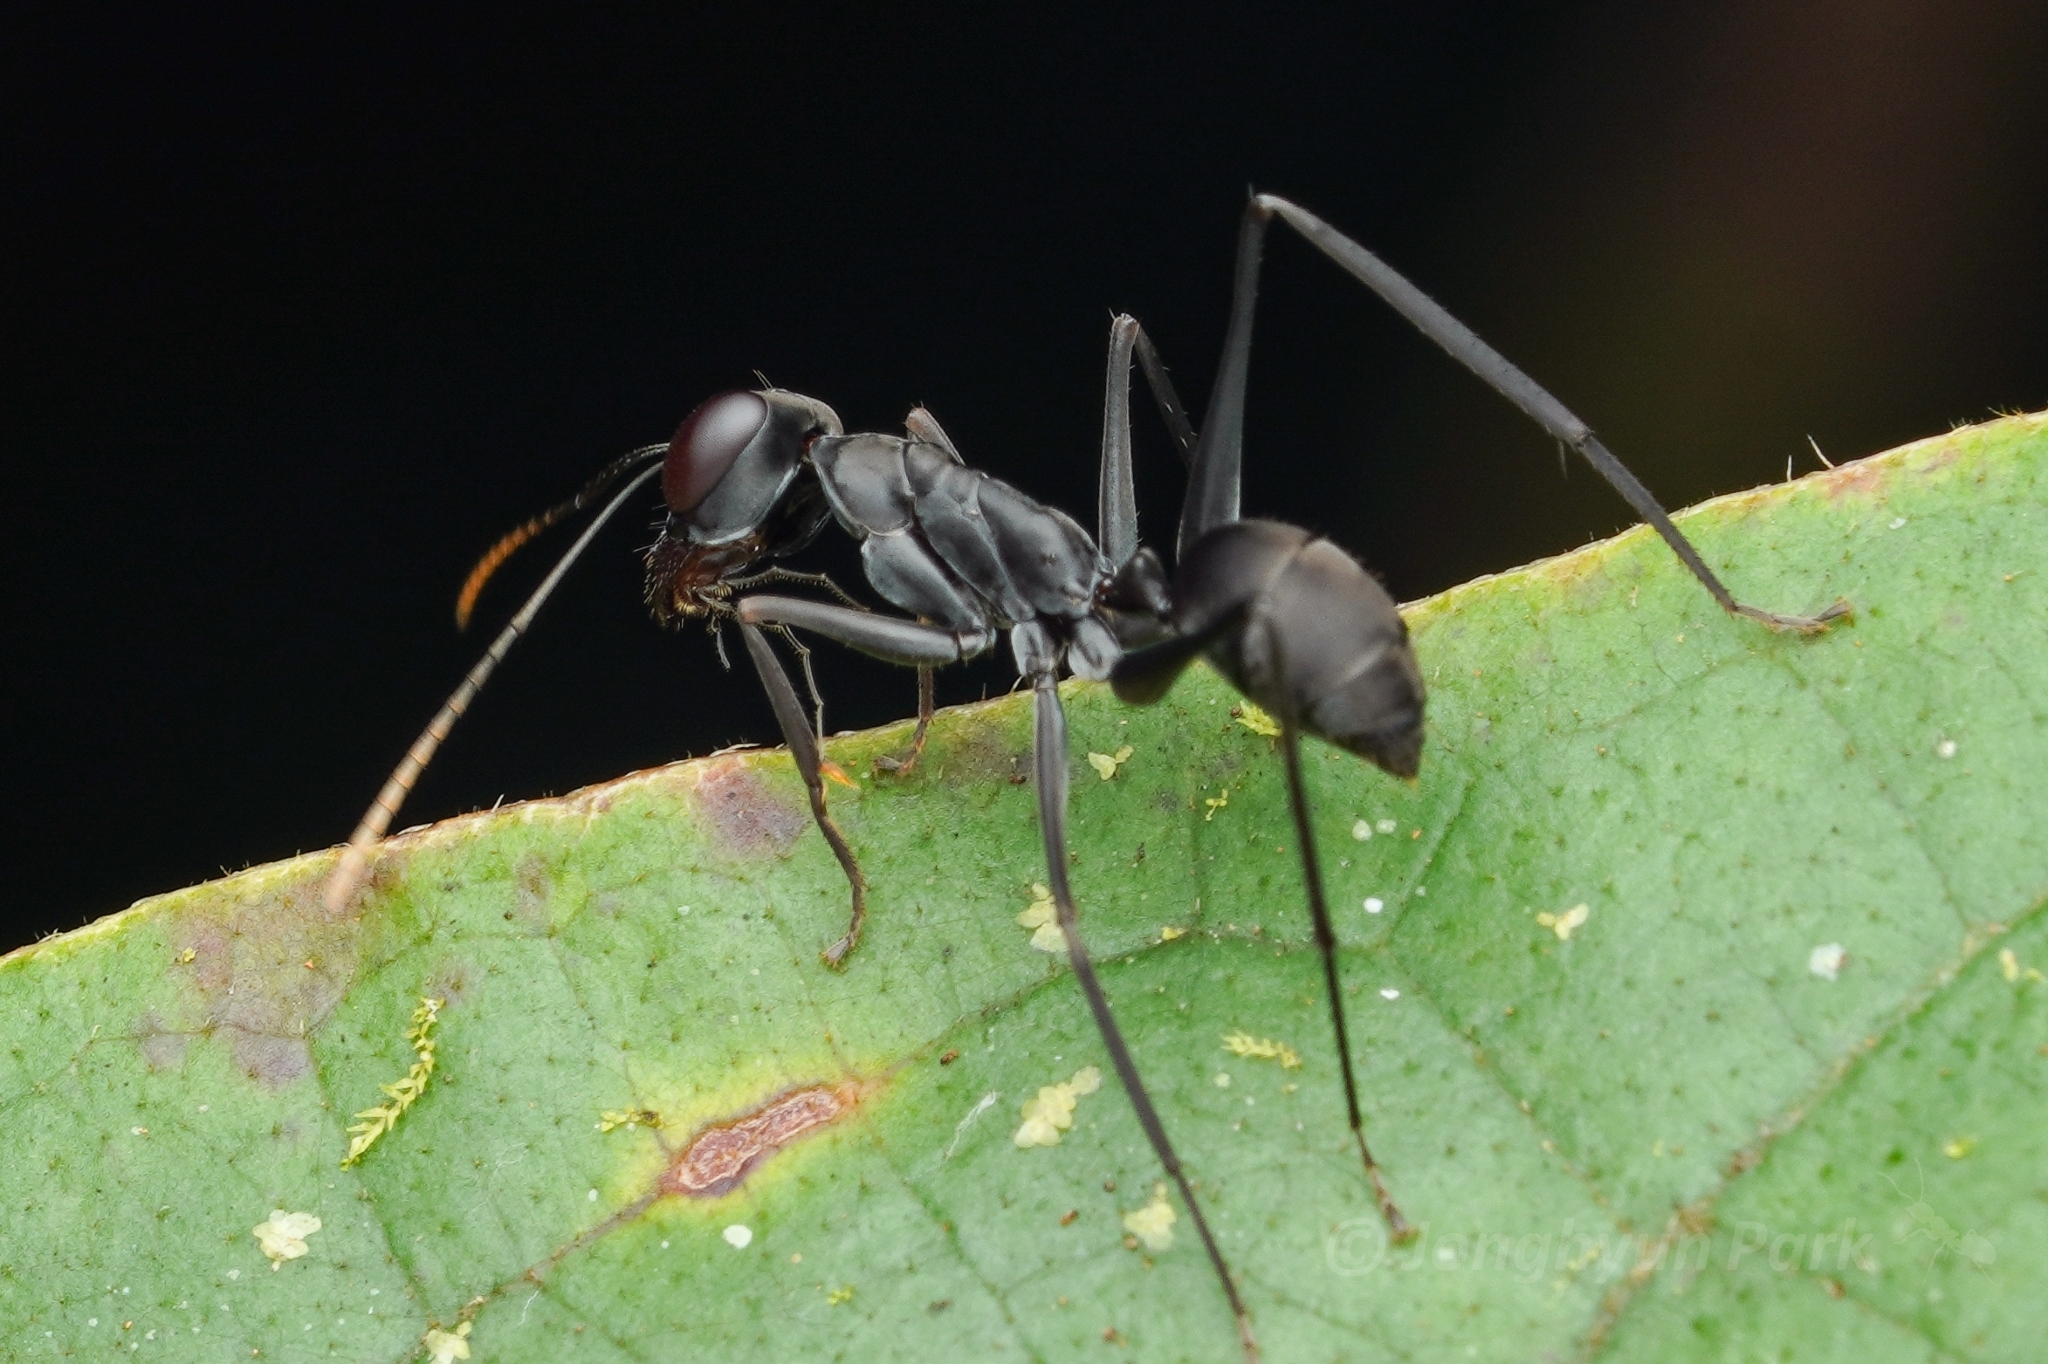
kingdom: Animalia
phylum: Arthropoda
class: Insecta
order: Hymenoptera
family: Formicidae
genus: Gigantiops
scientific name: Gigantiops destructor
